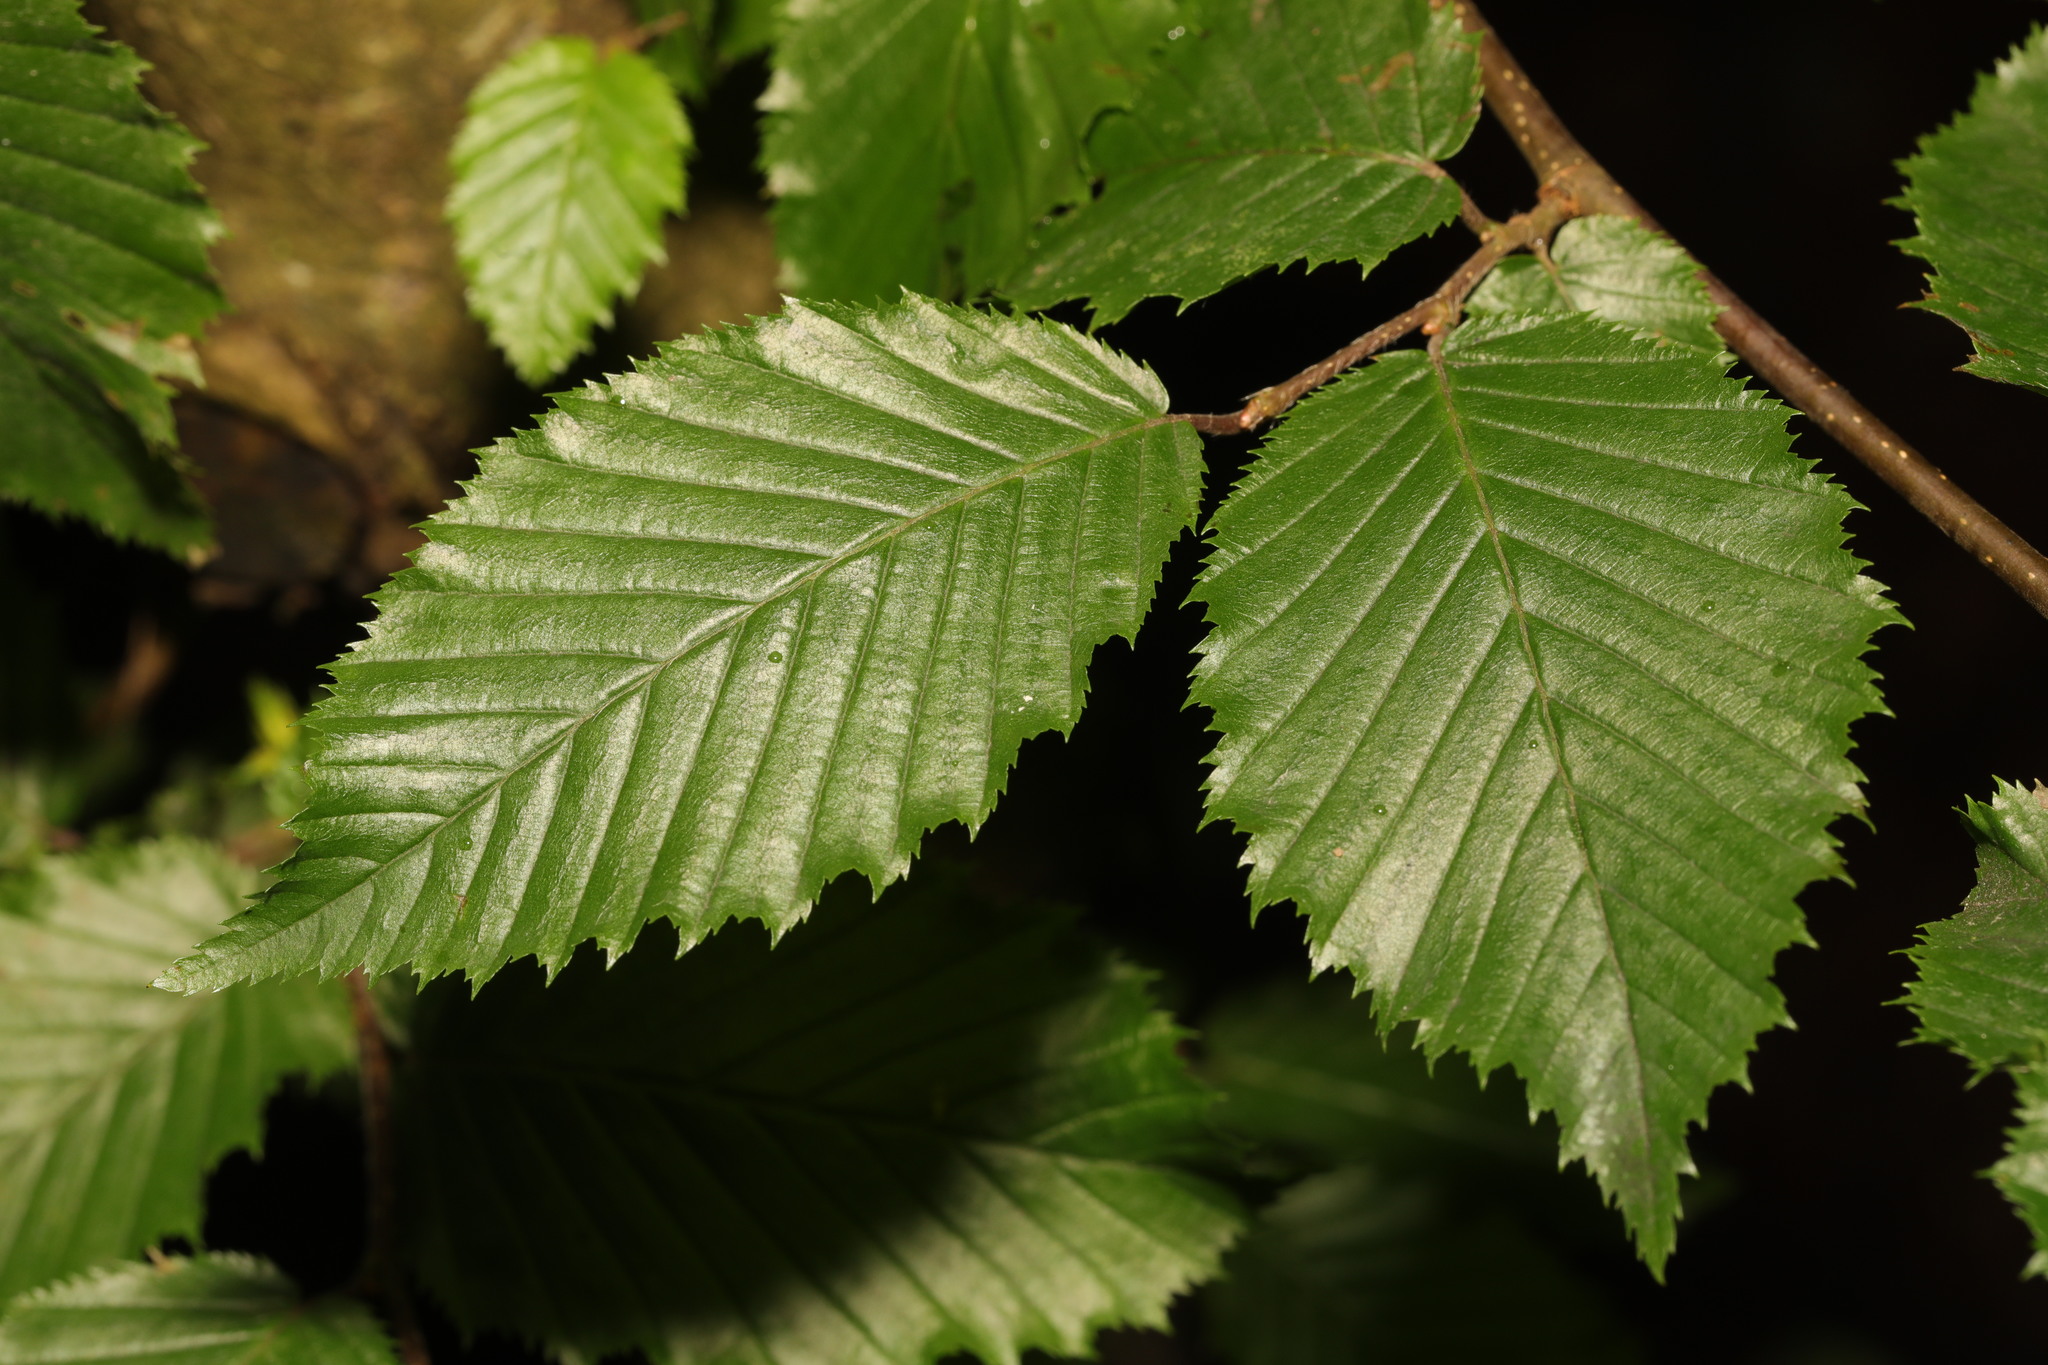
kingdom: Plantae
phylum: Tracheophyta
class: Magnoliopsida
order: Fagales
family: Betulaceae
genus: Carpinus
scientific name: Carpinus betulus
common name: Hornbeam
